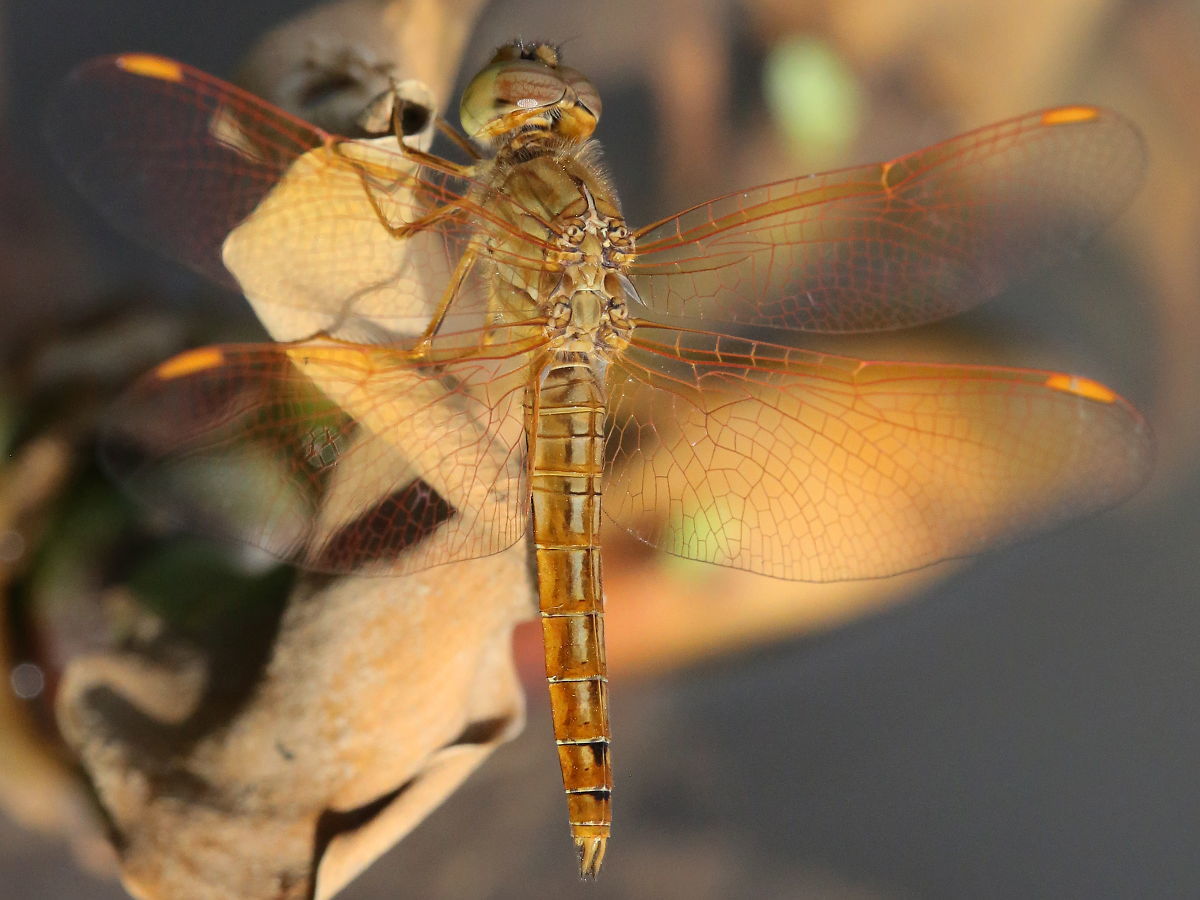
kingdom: Animalia
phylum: Arthropoda
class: Insecta
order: Odonata
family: Libellulidae
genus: Brachythemis
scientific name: Brachythemis contaminata
